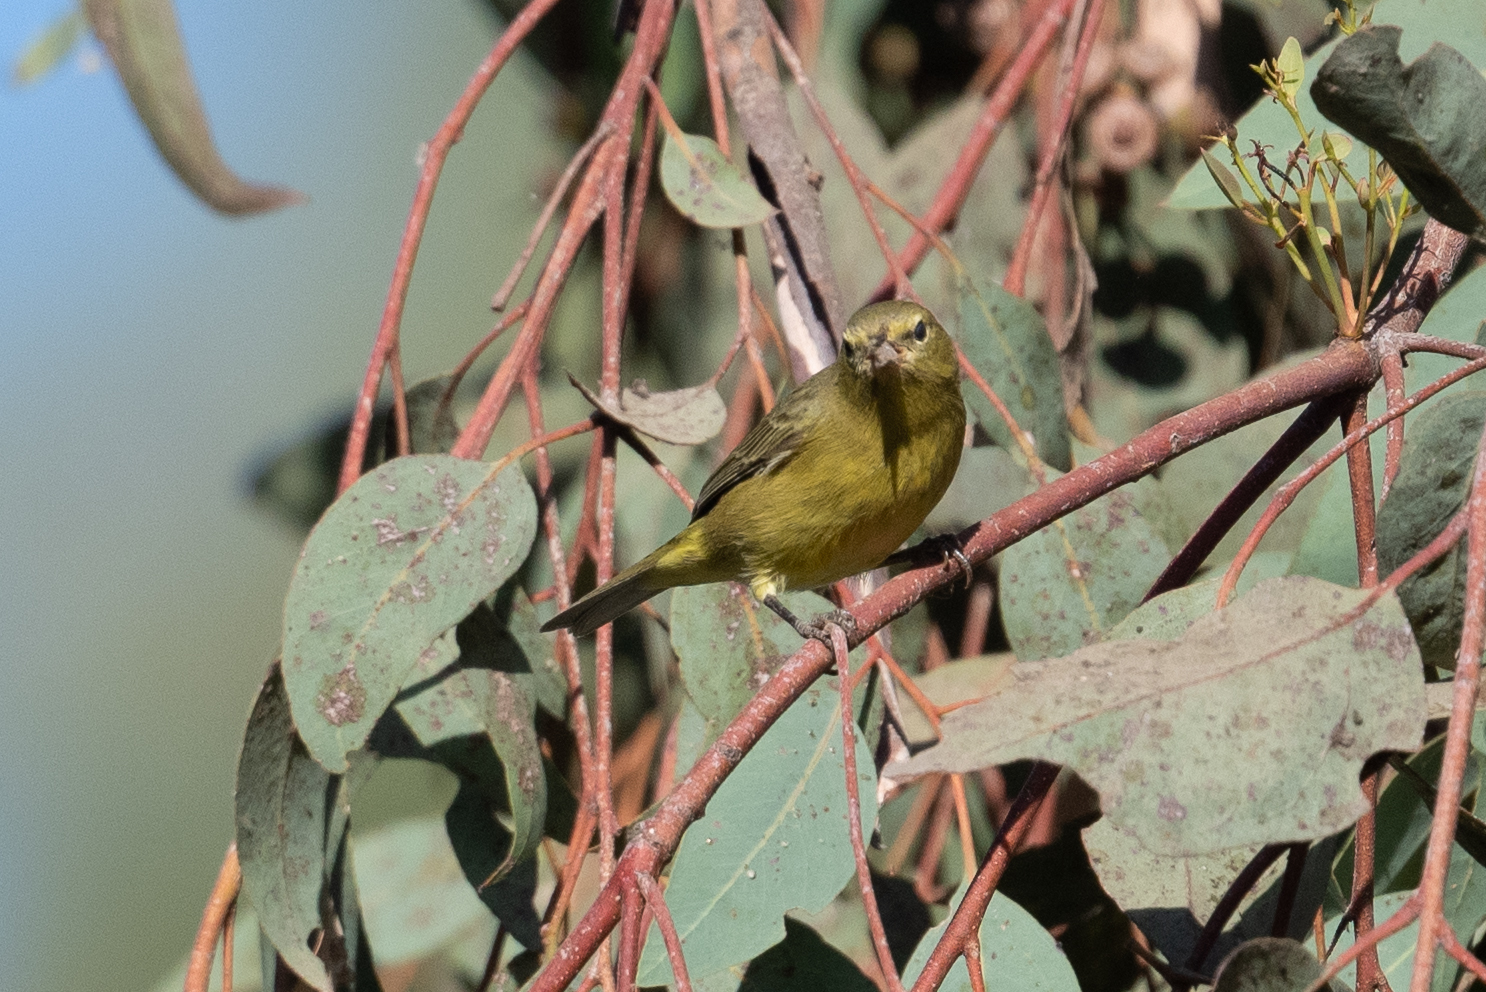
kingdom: Animalia
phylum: Chordata
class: Aves
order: Passeriformes
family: Parulidae
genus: Leiothlypis
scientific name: Leiothlypis celata
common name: Orange-crowned warbler
